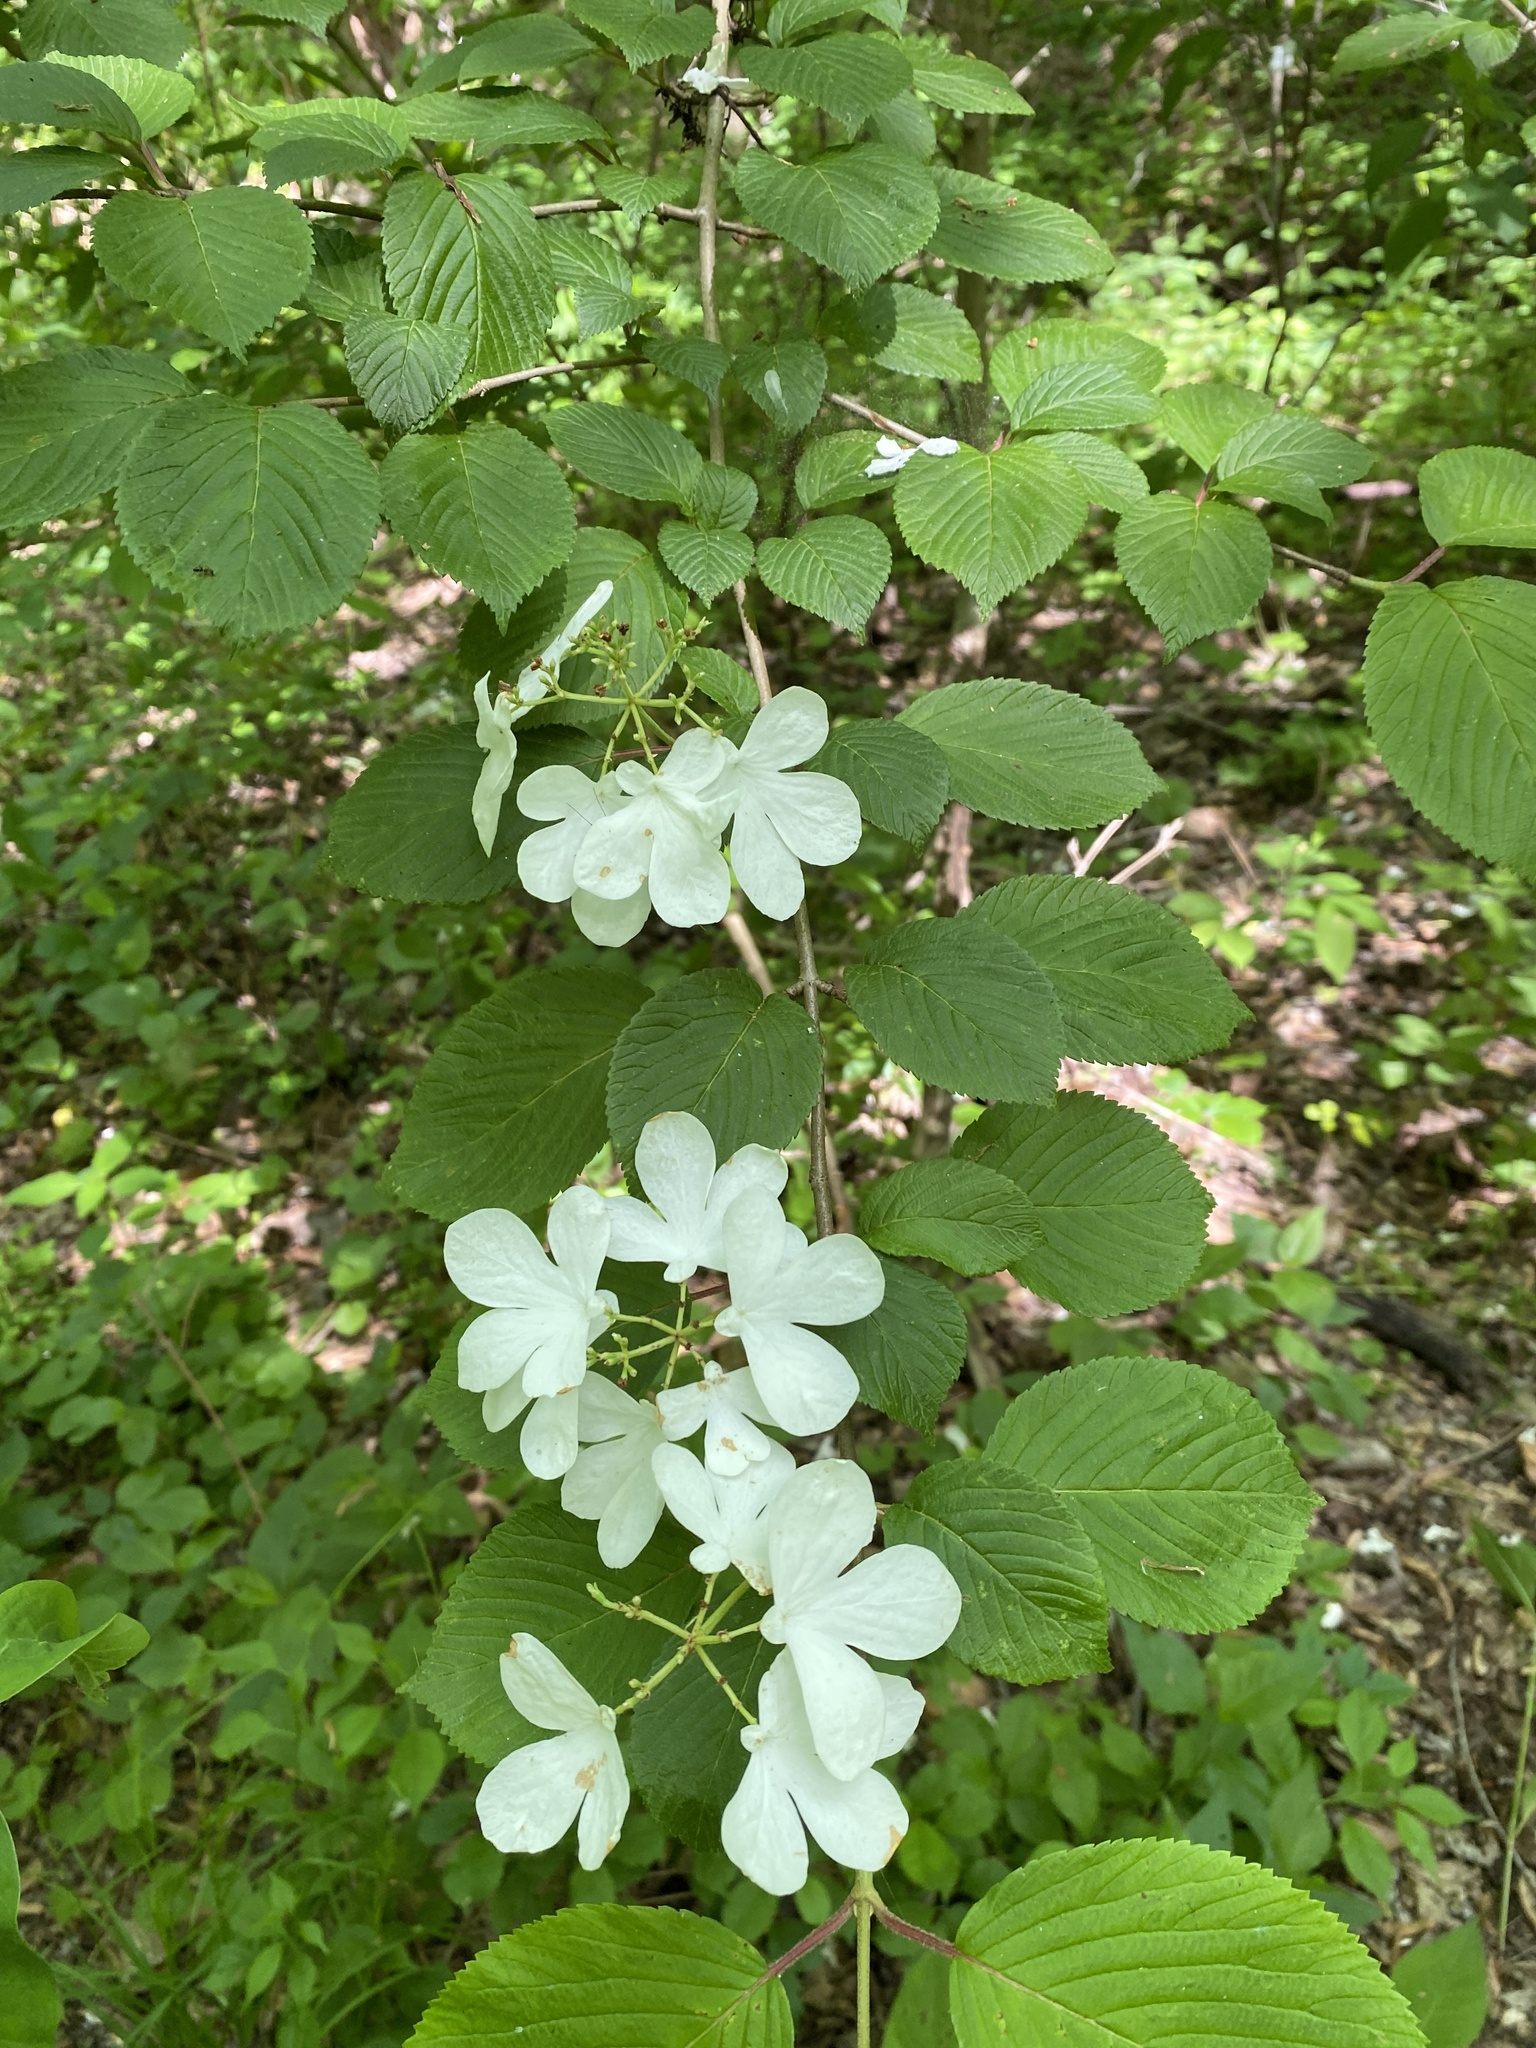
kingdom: Plantae
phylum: Tracheophyta
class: Magnoliopsida
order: Dipsacales
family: Viburnaceae
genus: Viburnum
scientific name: Viburnum plicatum
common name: Japanese snowball
